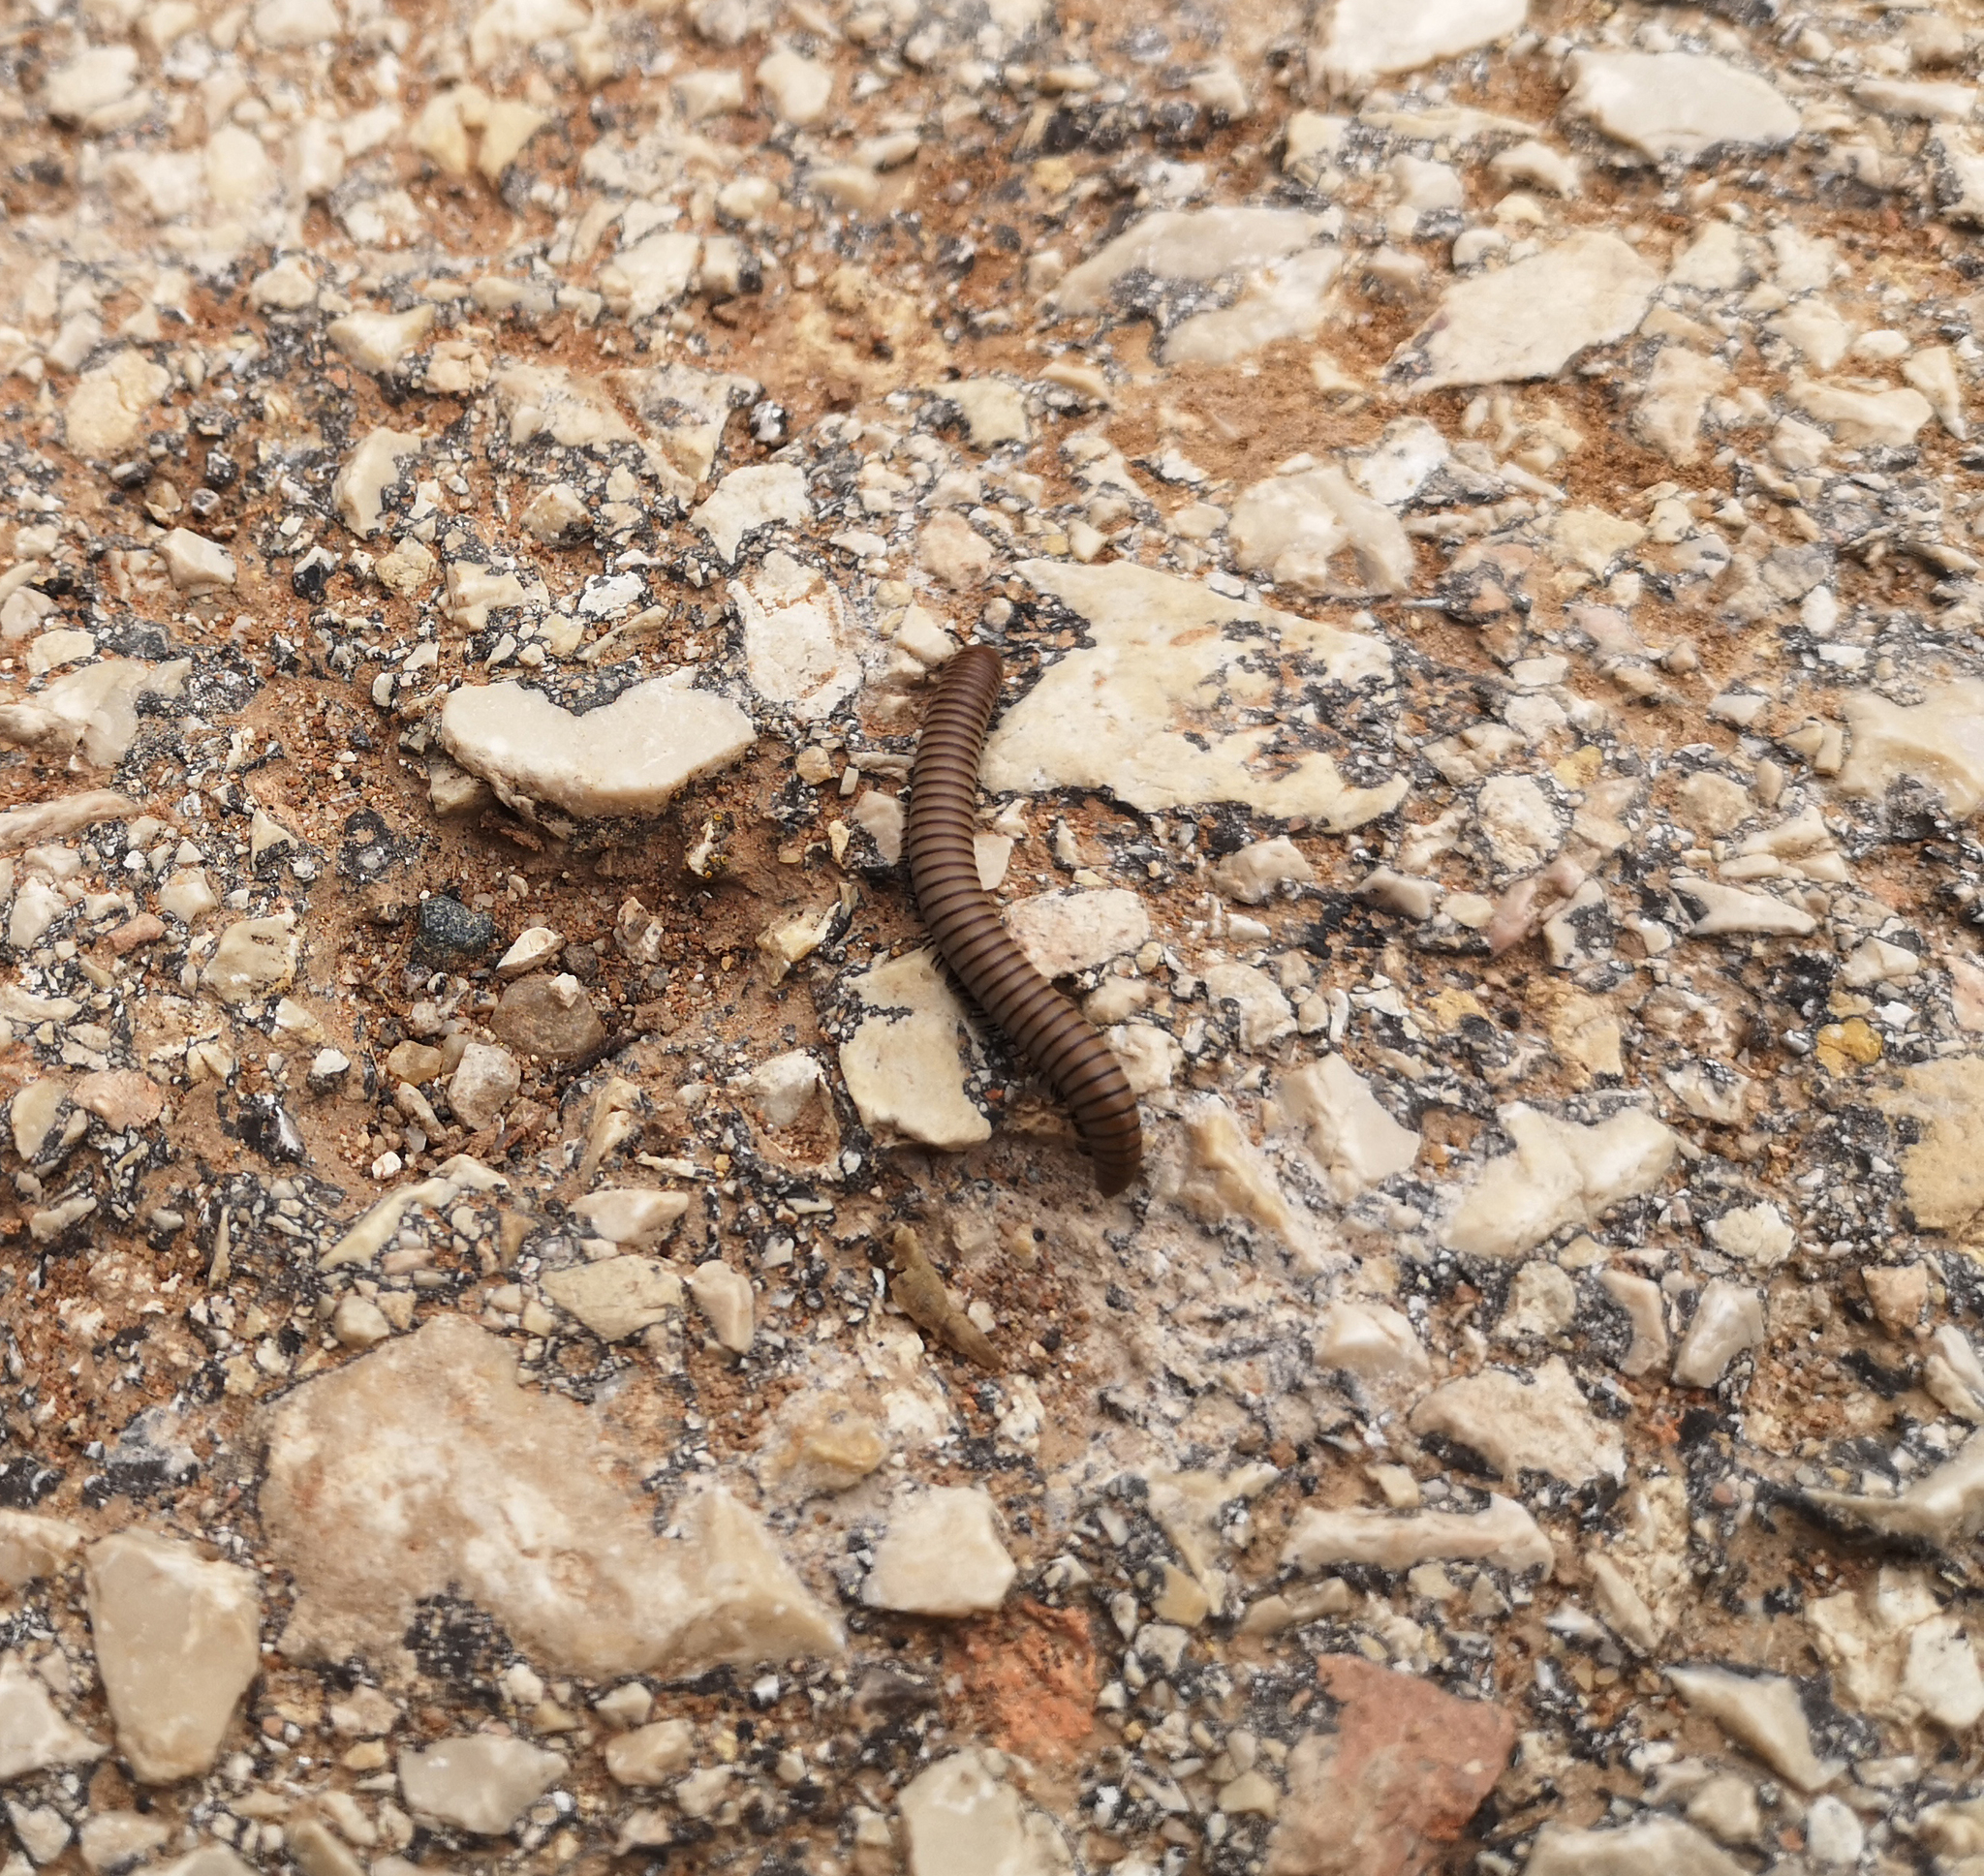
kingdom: Animalia
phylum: Arthropoda
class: Diplopoda
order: Julida
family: Julidae
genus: Ommatoiulus
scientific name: Ommatoiulus rutilans
